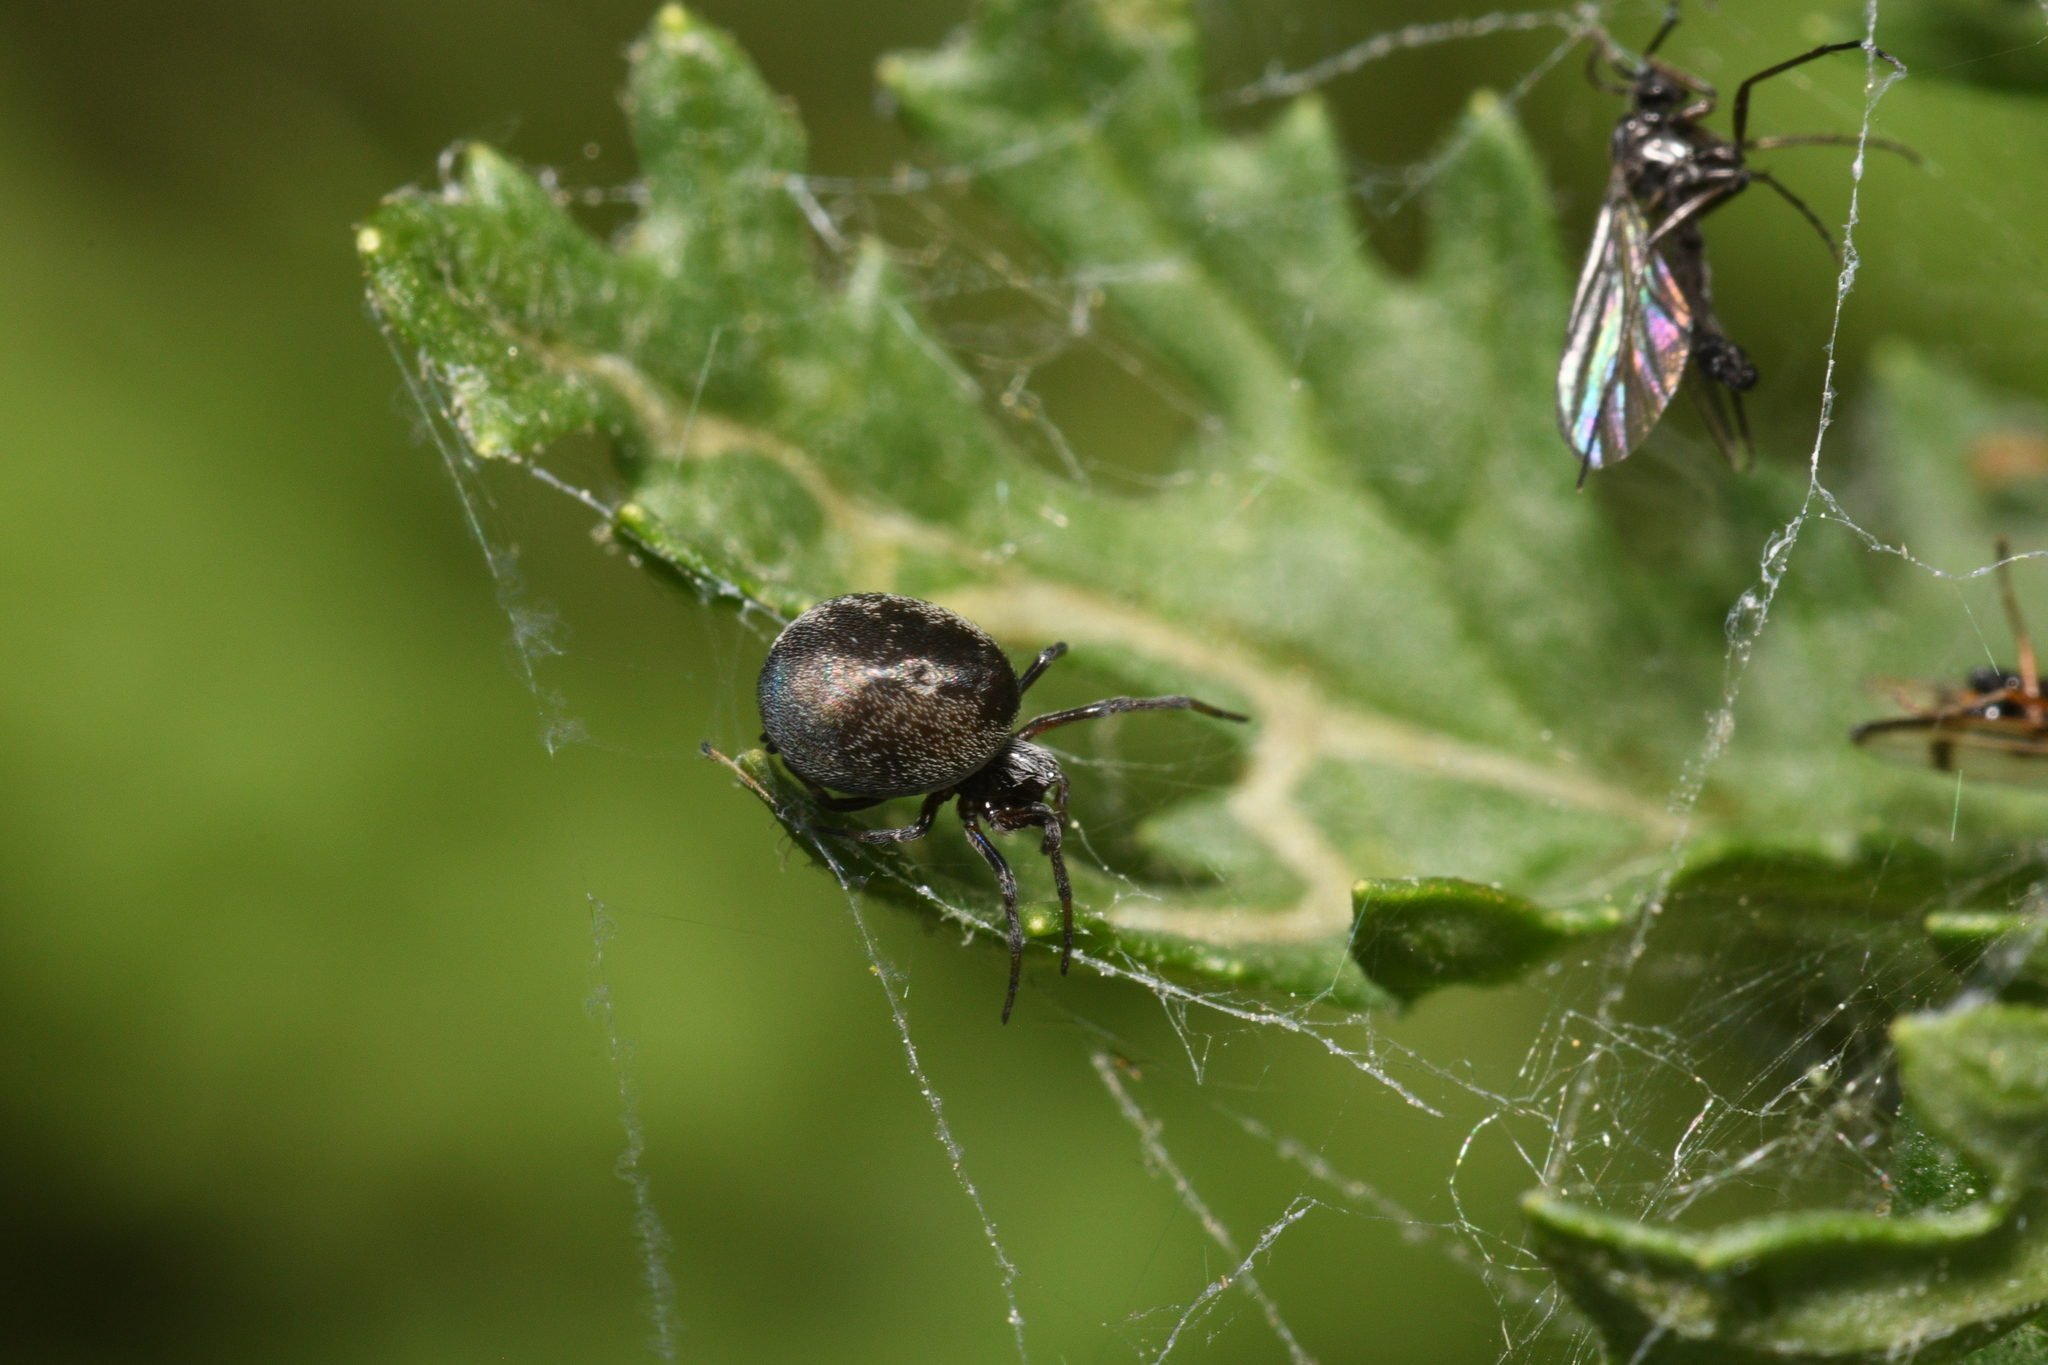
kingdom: Animalia
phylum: Arthropoda
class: Arachnida
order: Araneae
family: Dictynidae
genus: Brigittea
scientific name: Brigittea latens
